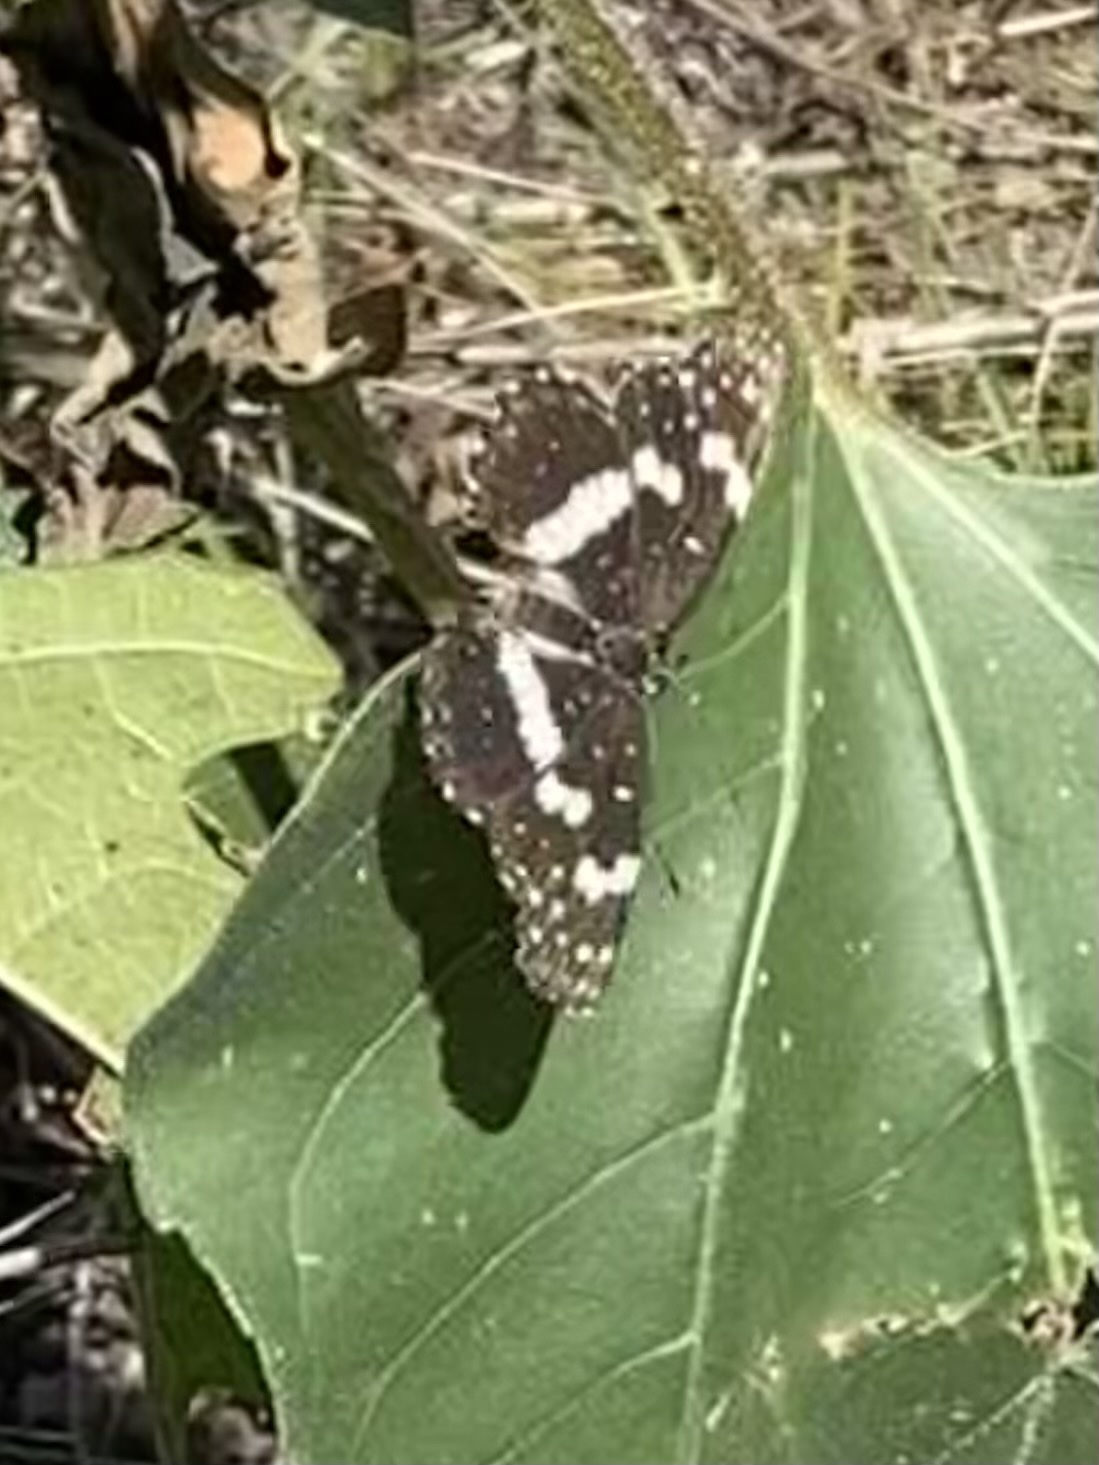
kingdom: Animalia
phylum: Arthropoda
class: Insecta
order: Lepidoptera
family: Nymphalidae
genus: Chlosyne
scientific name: Chlosyne lacinia
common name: Bordered patch
